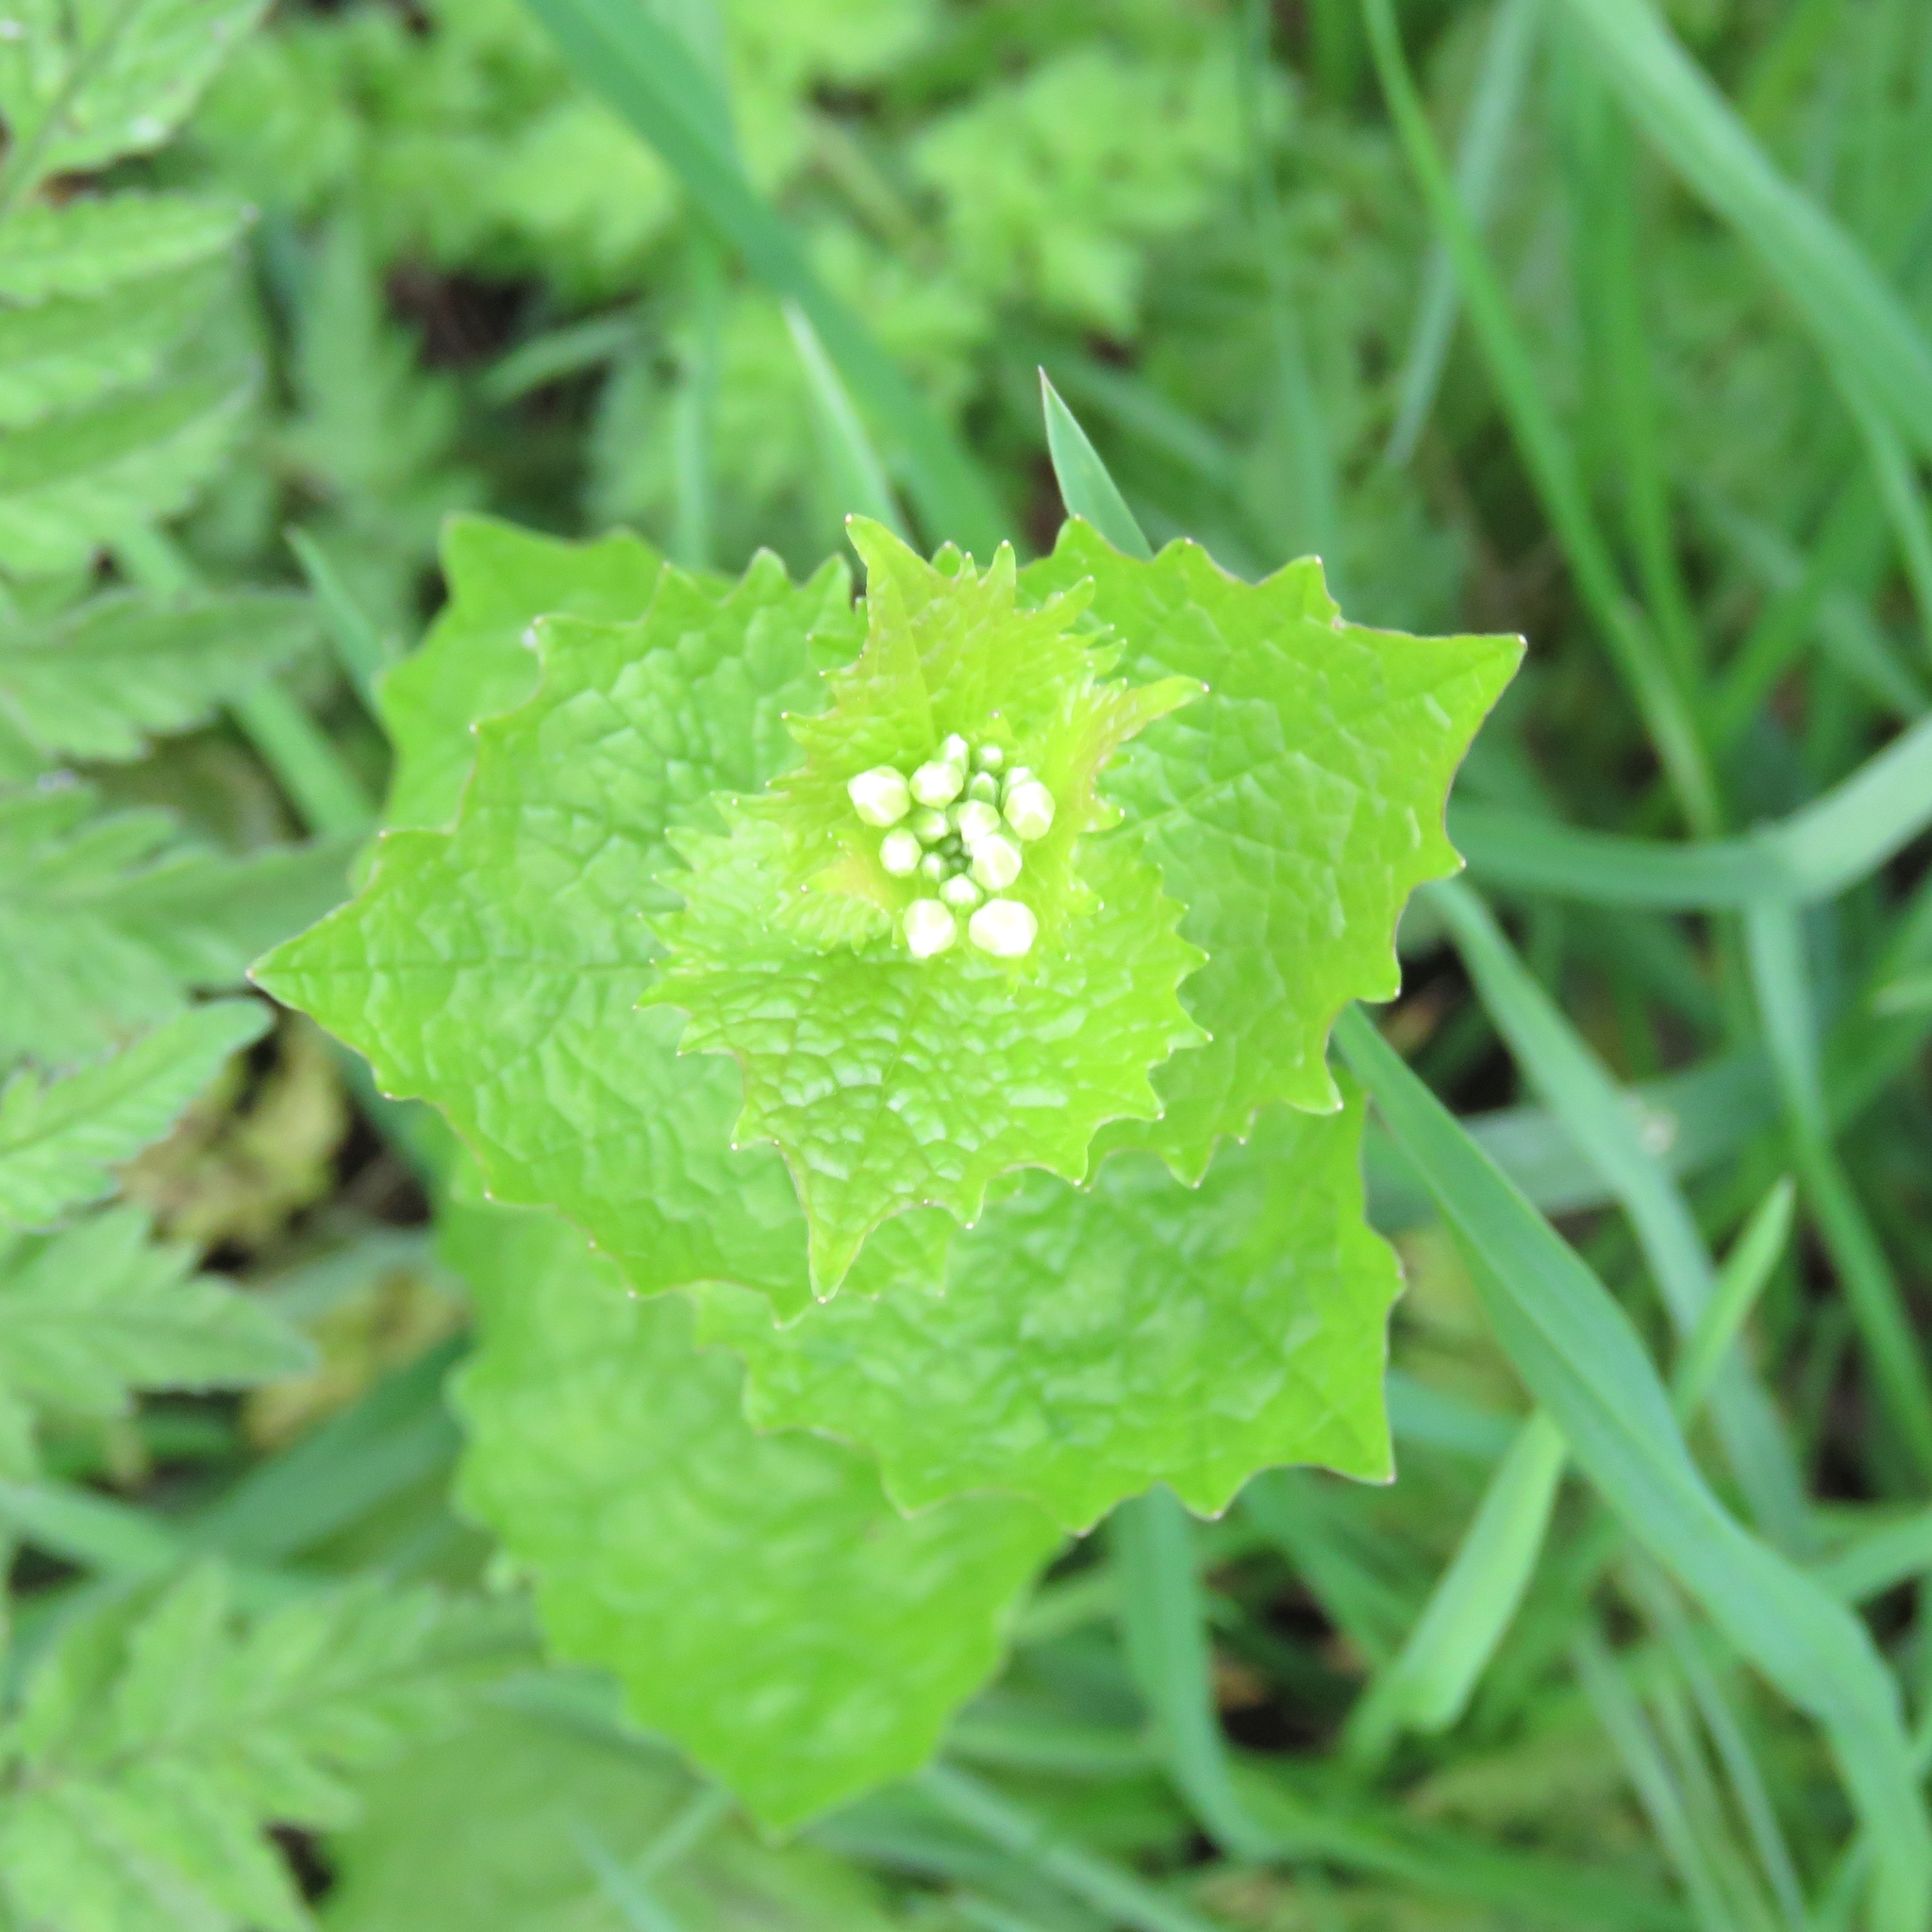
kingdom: Plantae
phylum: Tracheophyta
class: Magnoliopsida
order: Brassicales
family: Brassicaceae
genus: Alliaria
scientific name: Alliaria petiolata
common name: Garlic mustard
